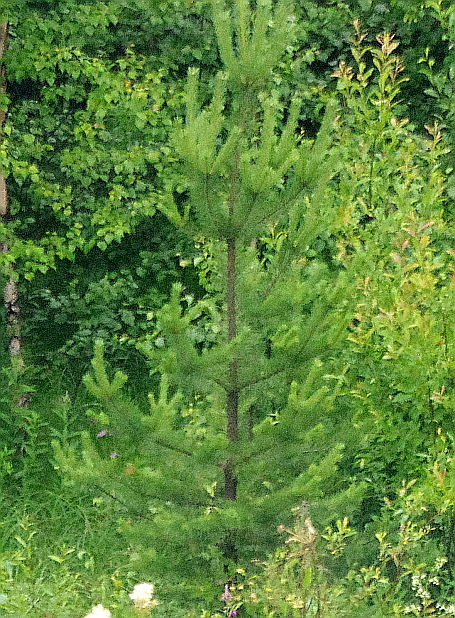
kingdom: Plantae
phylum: Tracheophyta
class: Pinopsida
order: Pinales
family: Pinaceae
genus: Pinus
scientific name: Pinus sylvestris
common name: Scots pine
